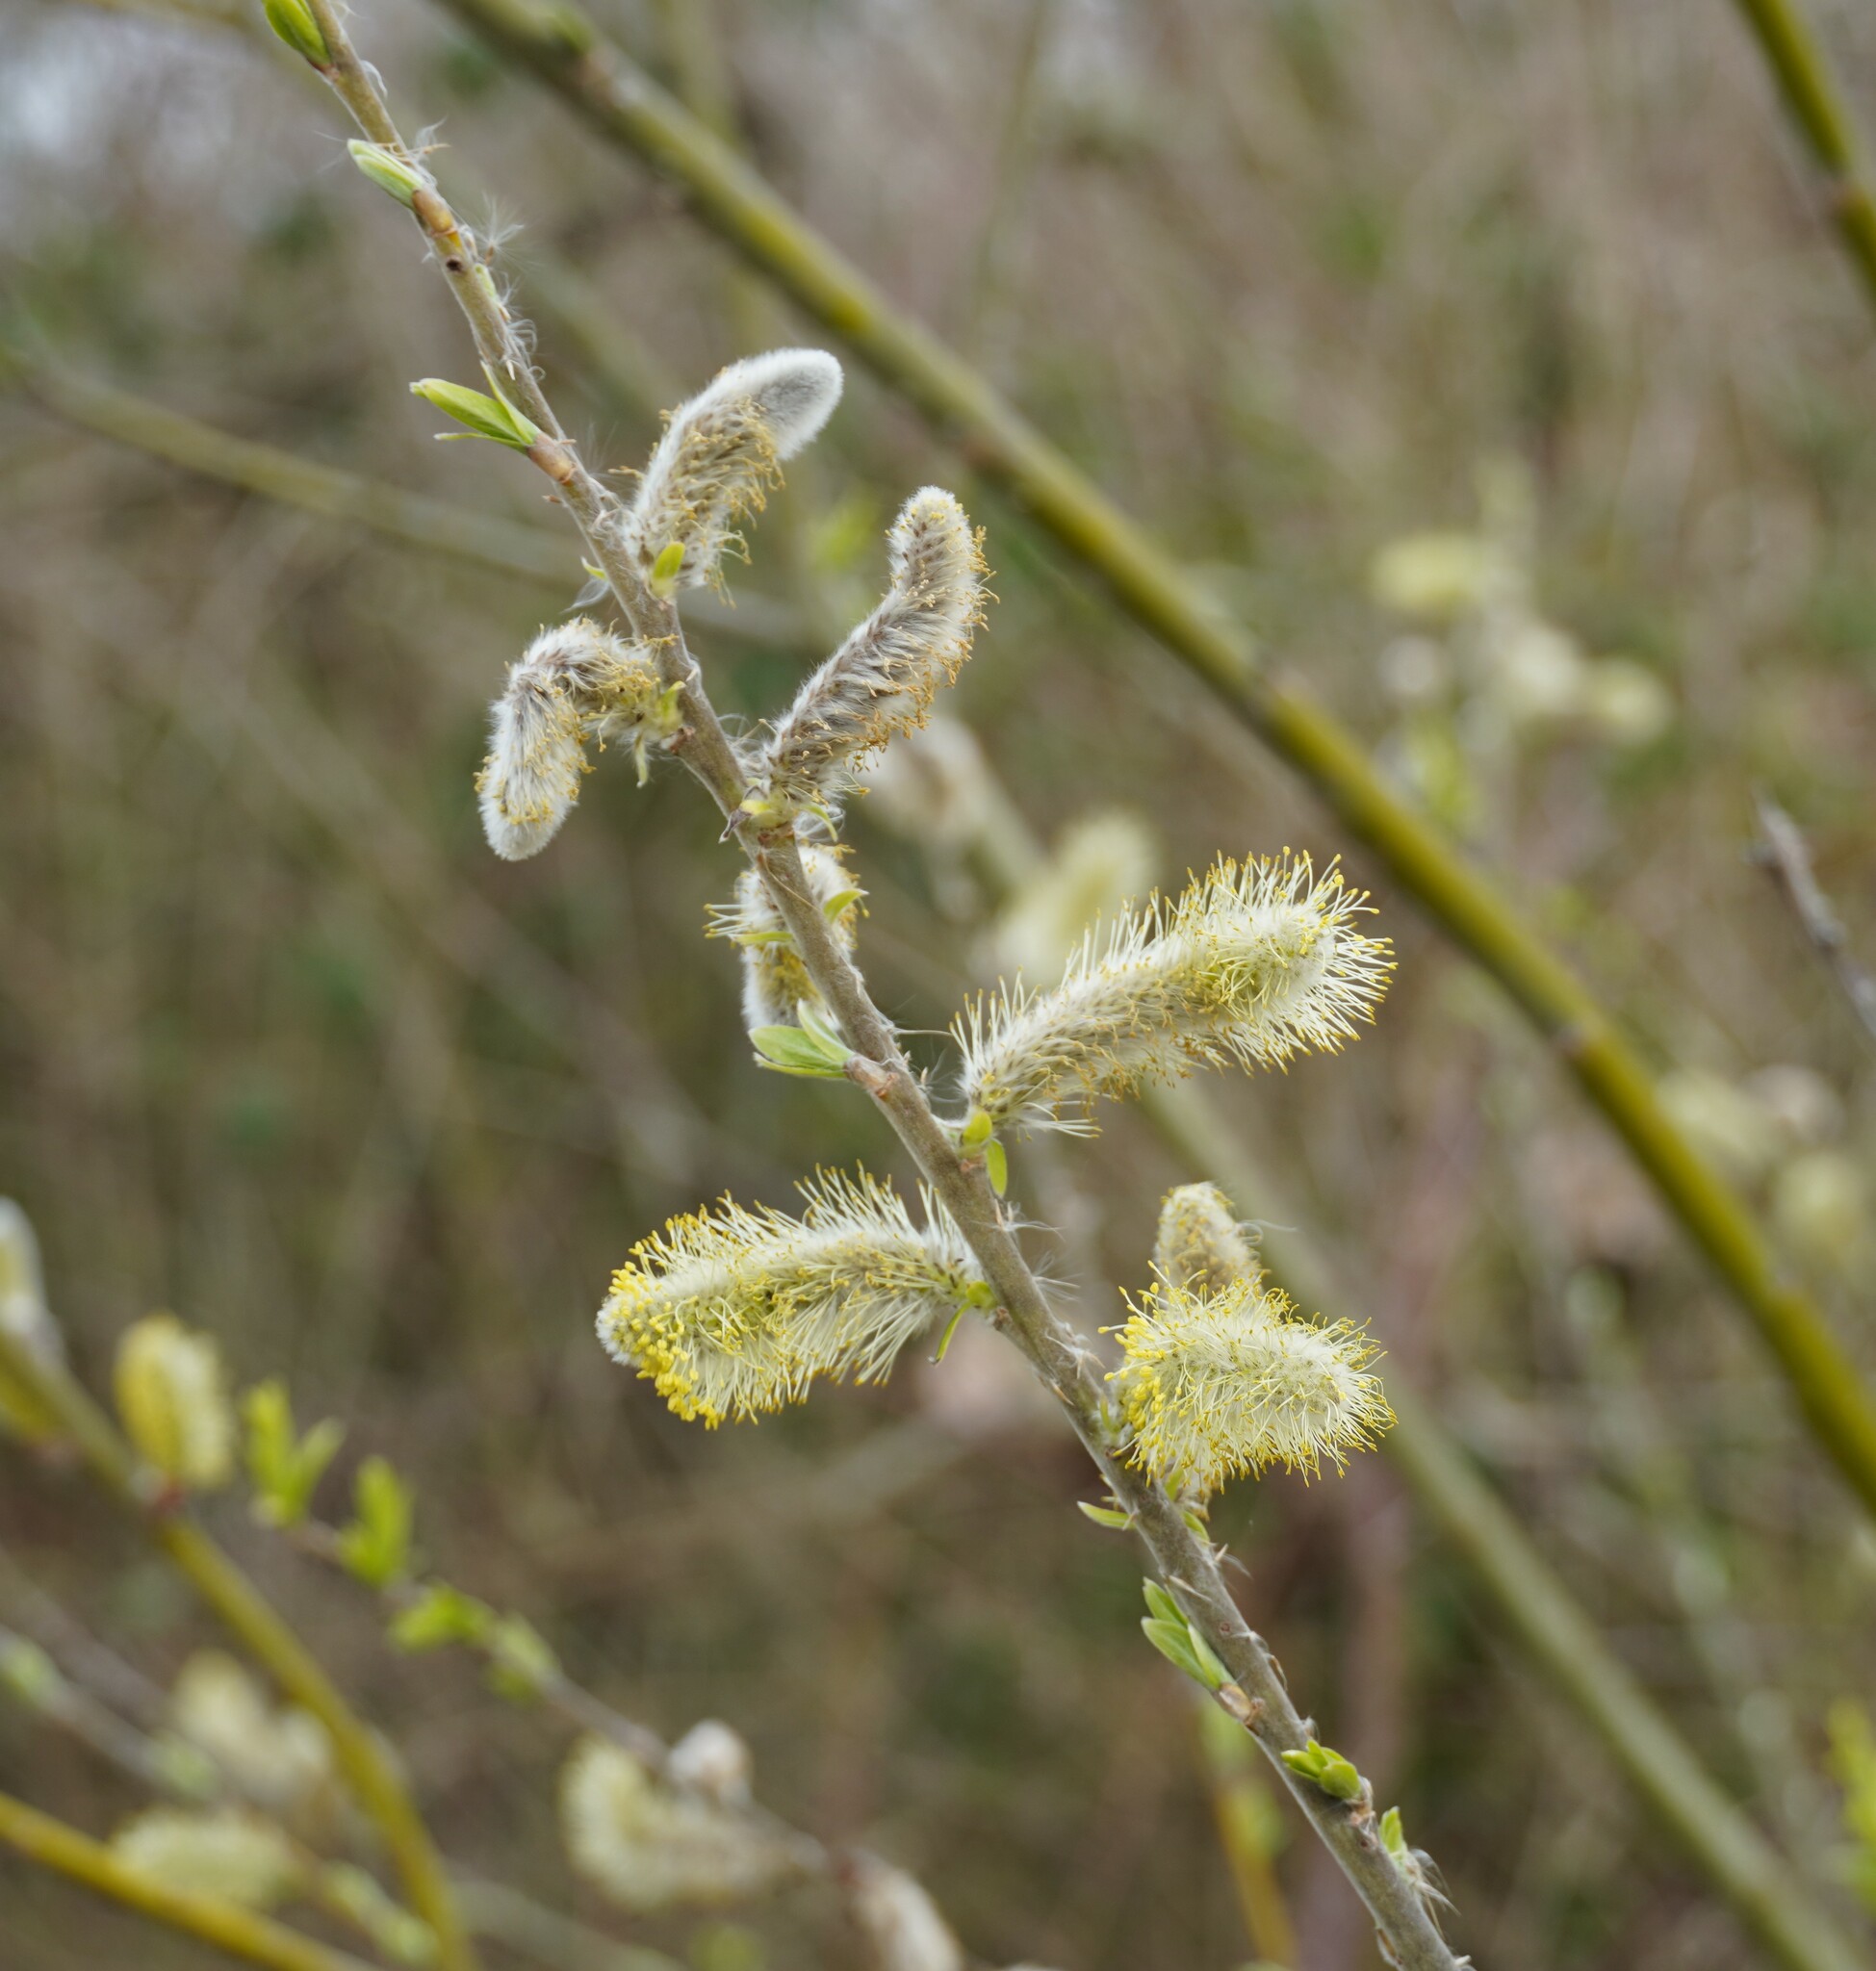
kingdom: Plantae
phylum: Tracheophyta
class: Magnoliopsida
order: Malpighiales
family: Salicaceae
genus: Salix
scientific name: Salix viminalis
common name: Osier
